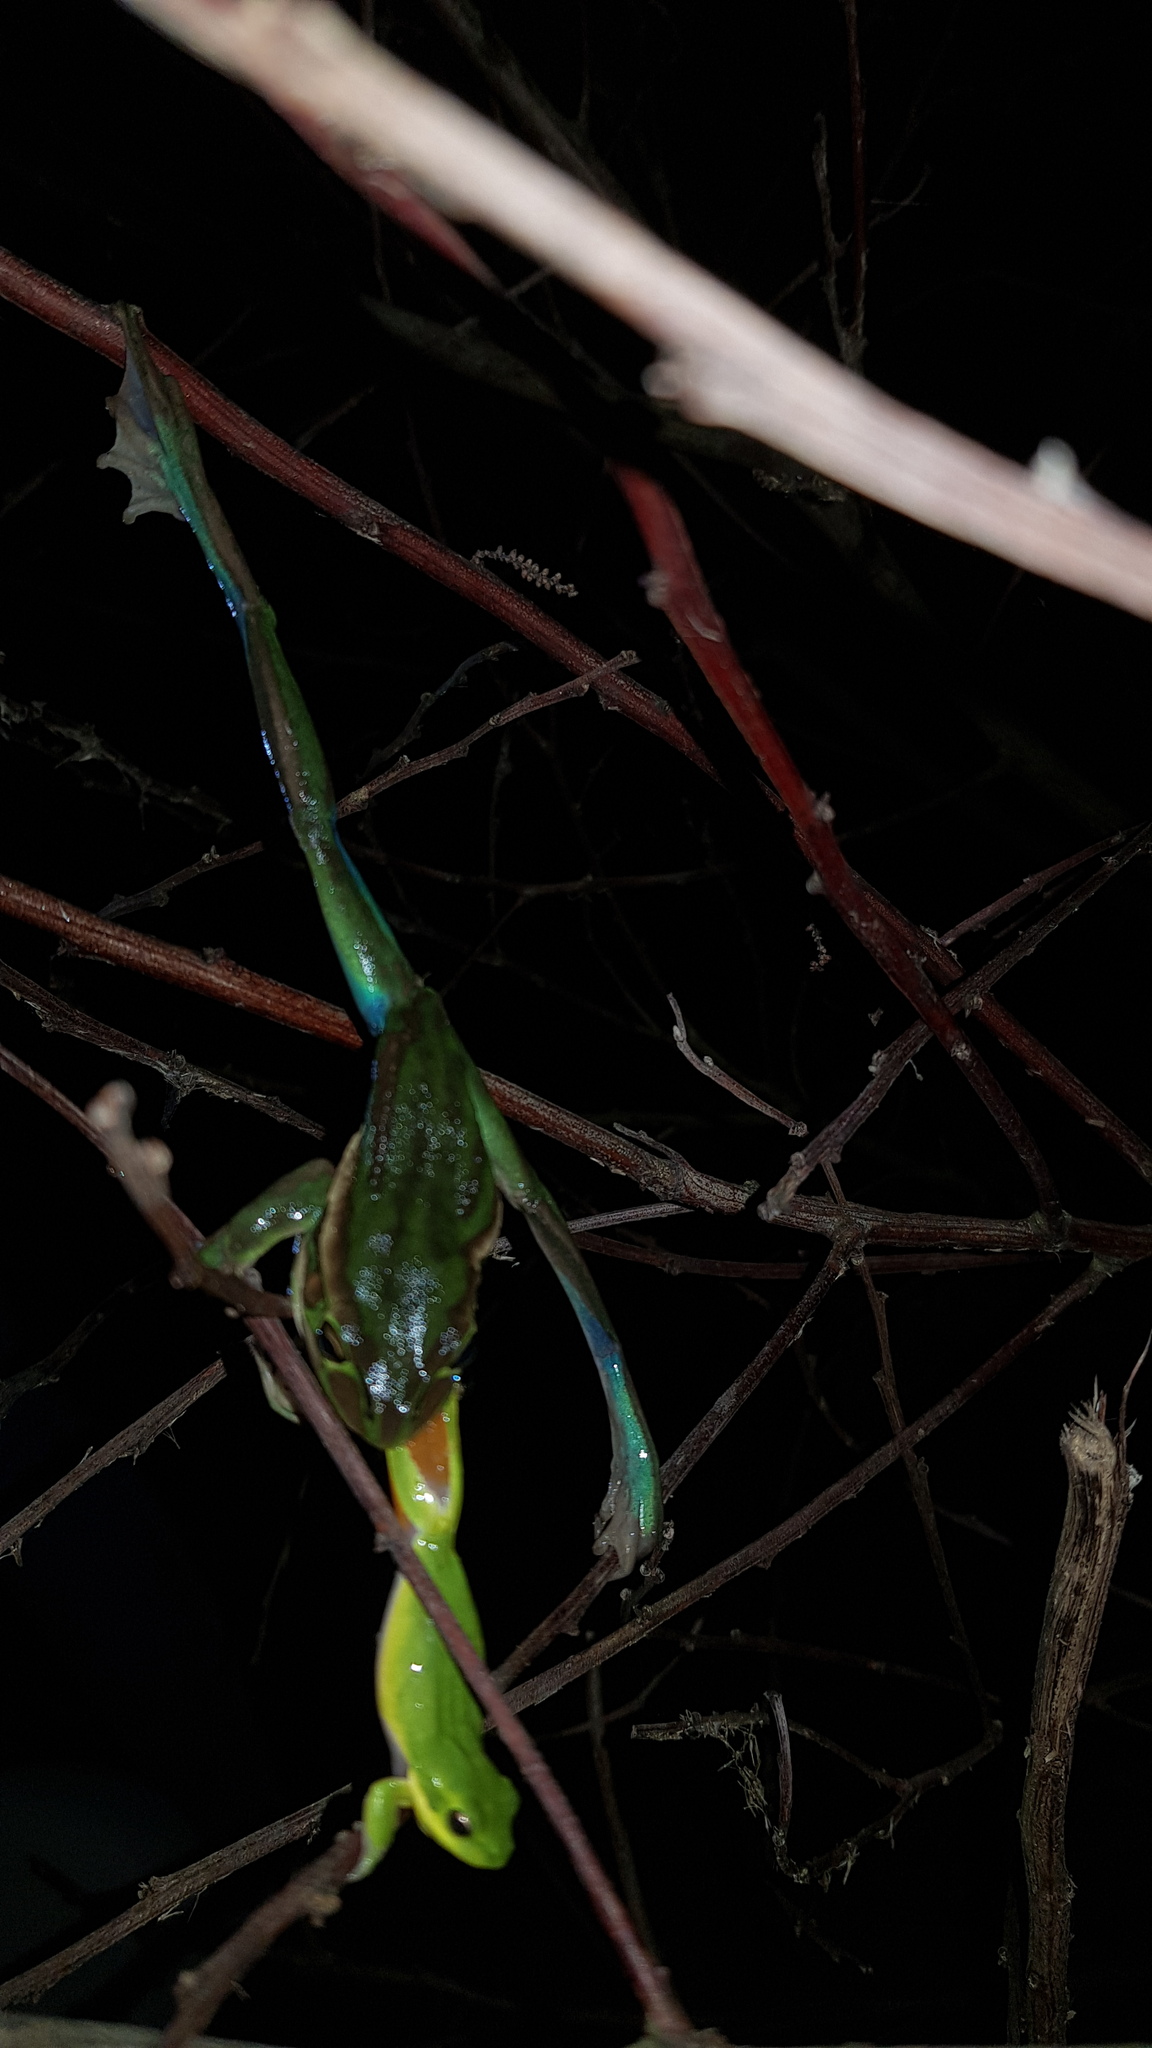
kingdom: Animalia
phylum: Chordata
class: Amphibia
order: Anura
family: Pelodryadidae
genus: Litoria
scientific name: Litoria fallax
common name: Eastern dwarf treefrog
